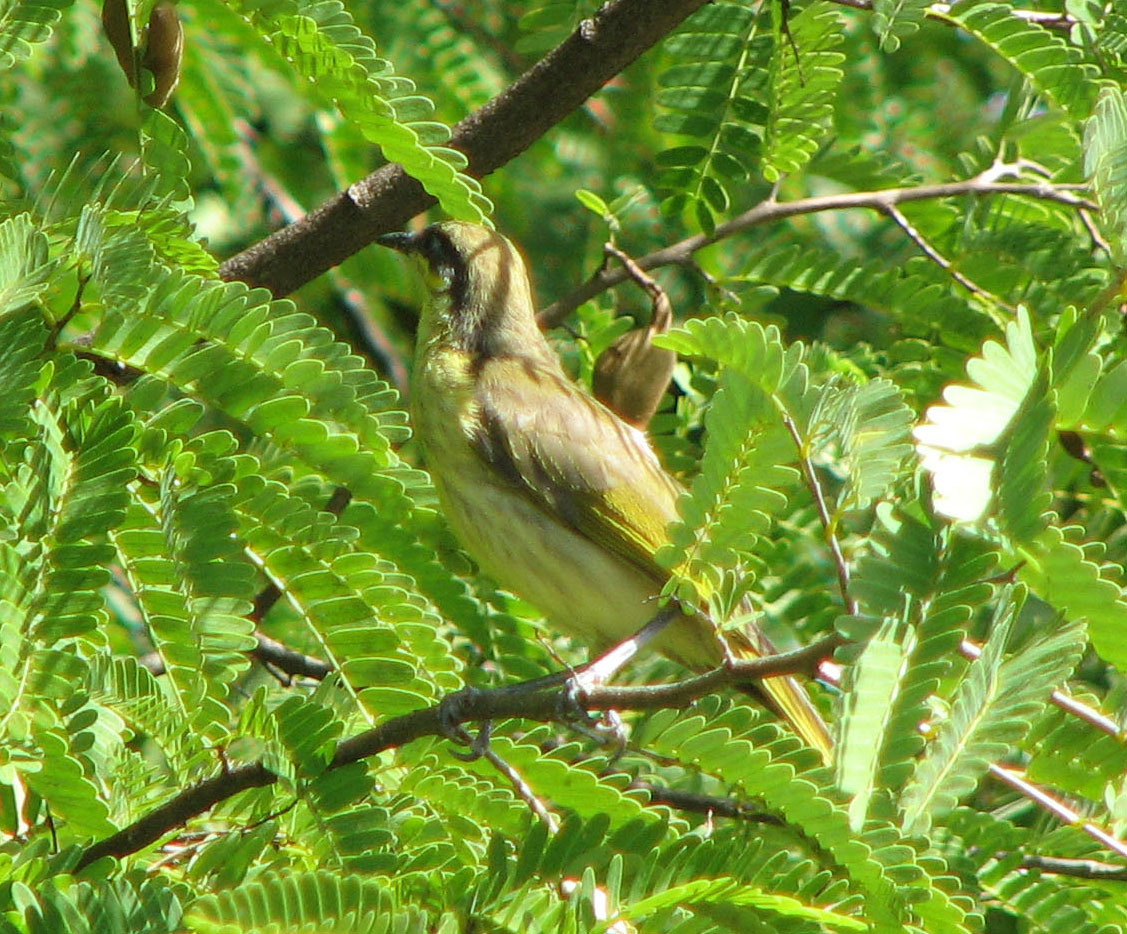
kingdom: Animalia
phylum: Chordata
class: Aves
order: Passeriformes
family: Meliphagidae
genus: Gavicalis
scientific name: Gavicalis versicolor
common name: Varied honeyeater
